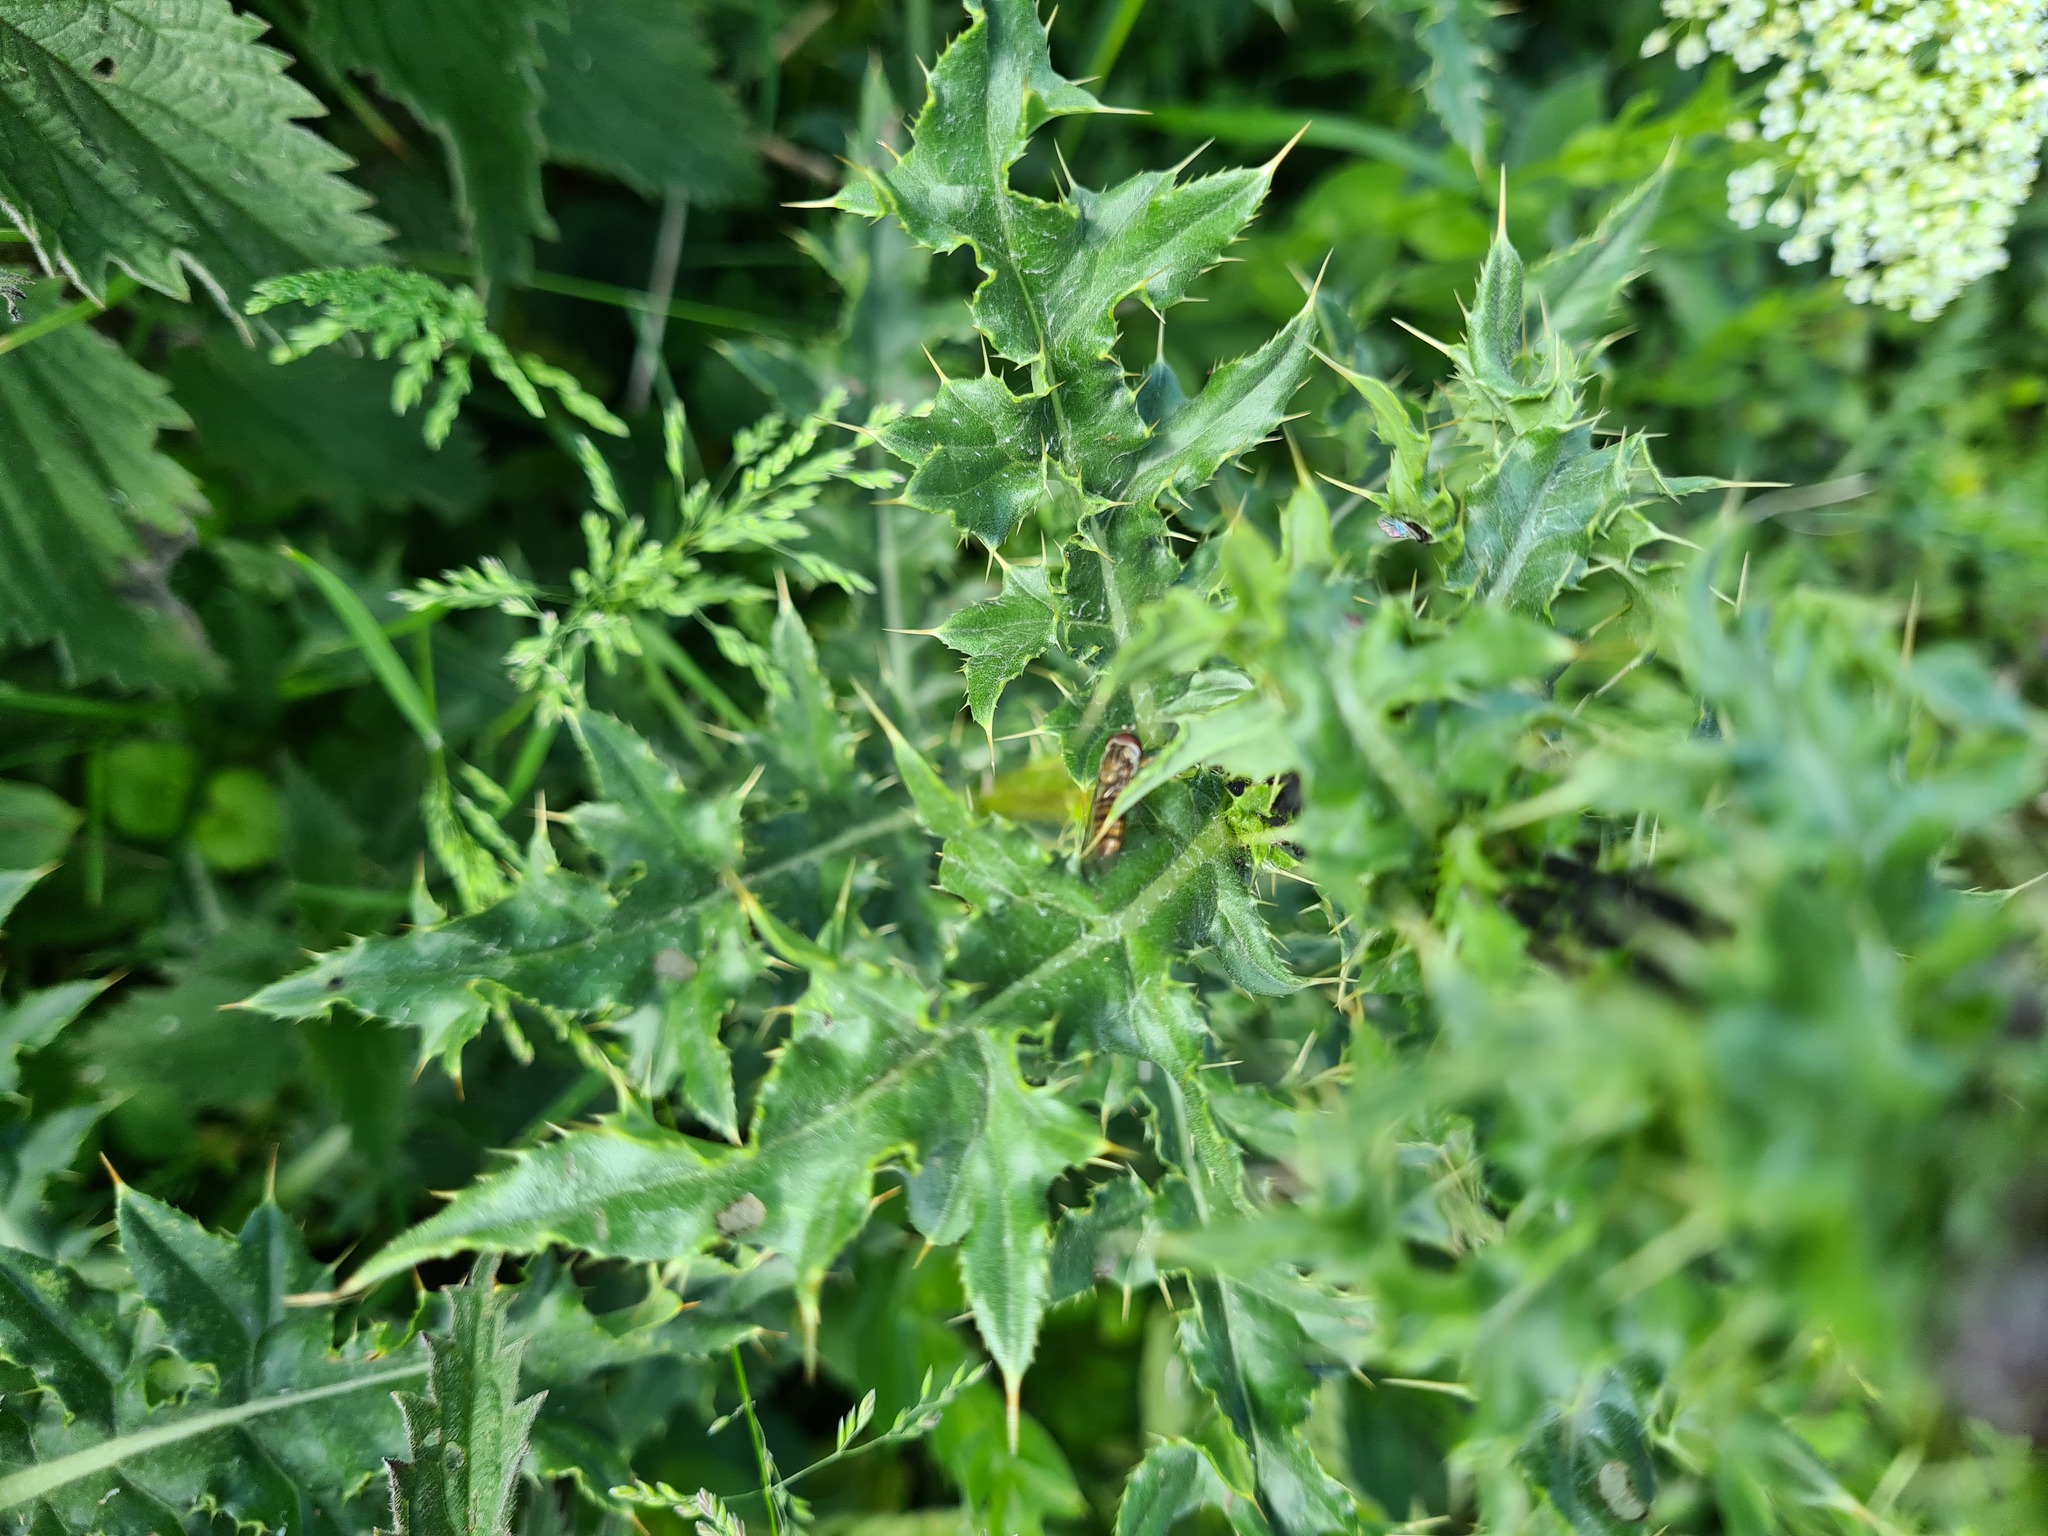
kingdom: Animalia
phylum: Arthropoda
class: Insecta
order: Diptera
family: Syrphidae
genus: Episyrphus
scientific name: Episyrphus balteatus
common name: Marmalade hoverfly
